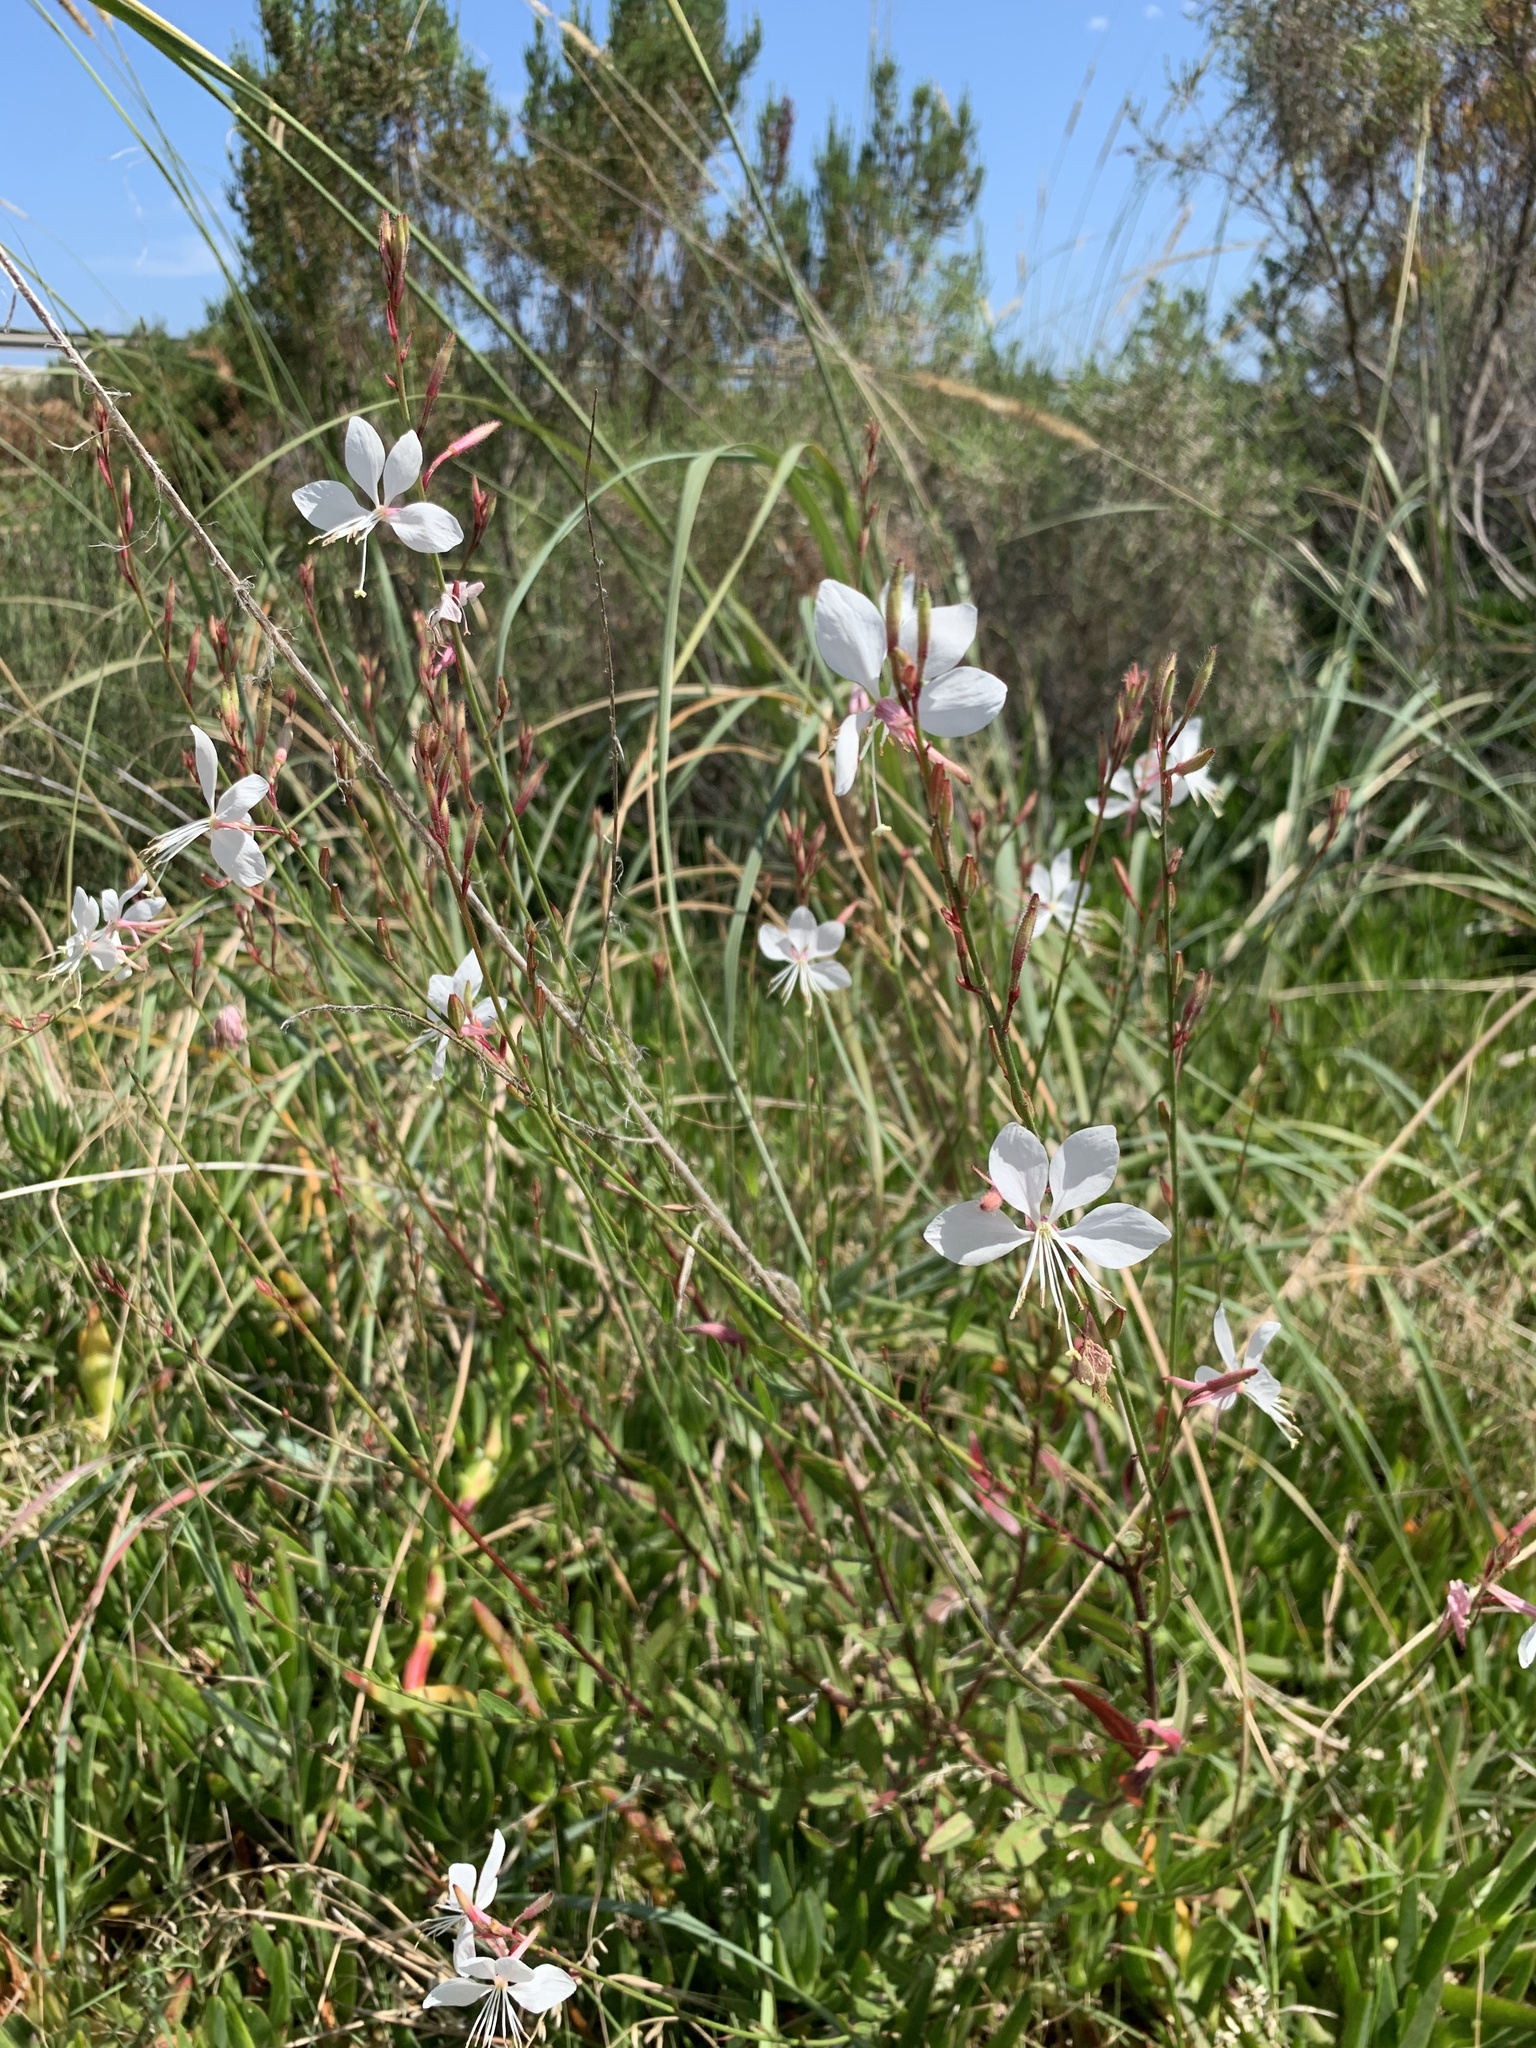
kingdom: Plantae
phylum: Tracheophyta
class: Magnoliopsida
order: Myrtales
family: Onagraceae
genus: Oenothera
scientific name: Oenothera lindheimeri
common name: Lindheimer's beeblossom
